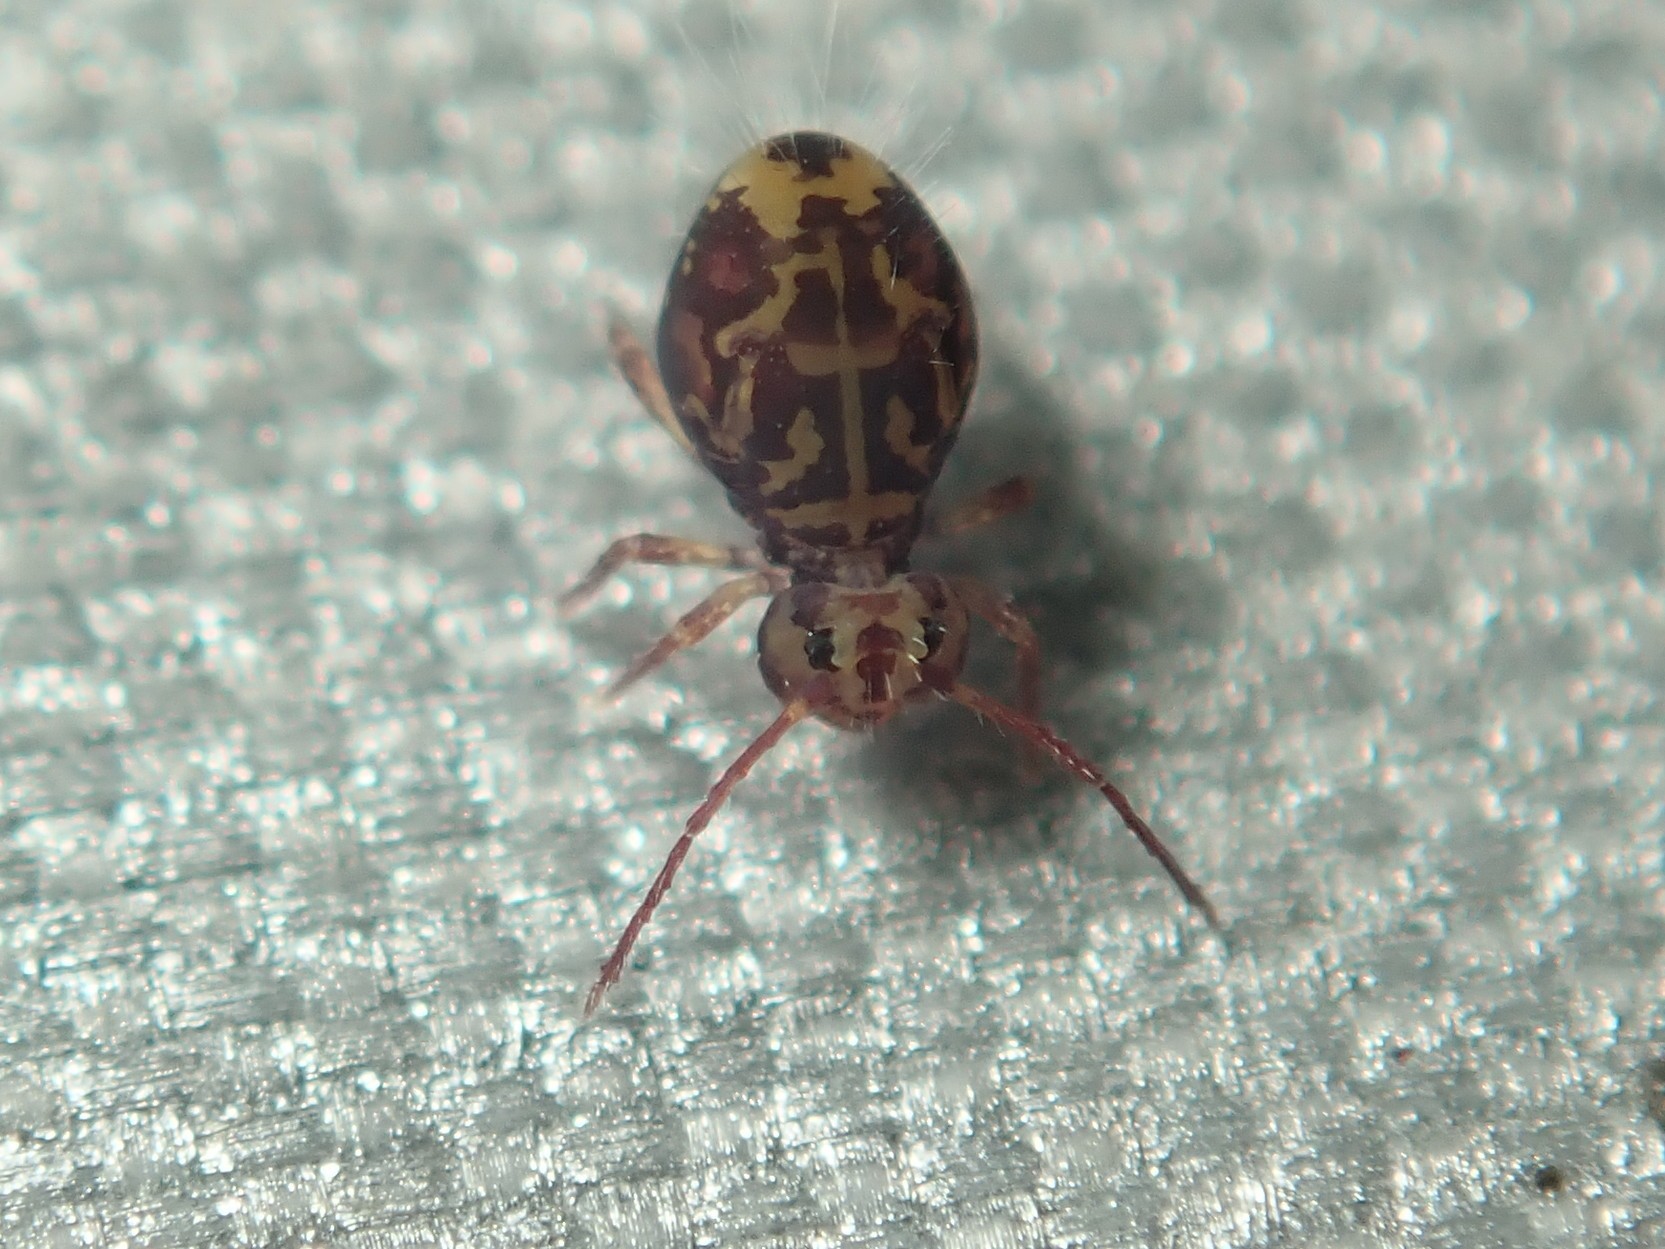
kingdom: Animalia
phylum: Arthropoda
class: Collembola
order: Symphypleona
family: Dicyrtomidae
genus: Dicyrtomina
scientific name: Dicyrtomina ornata
